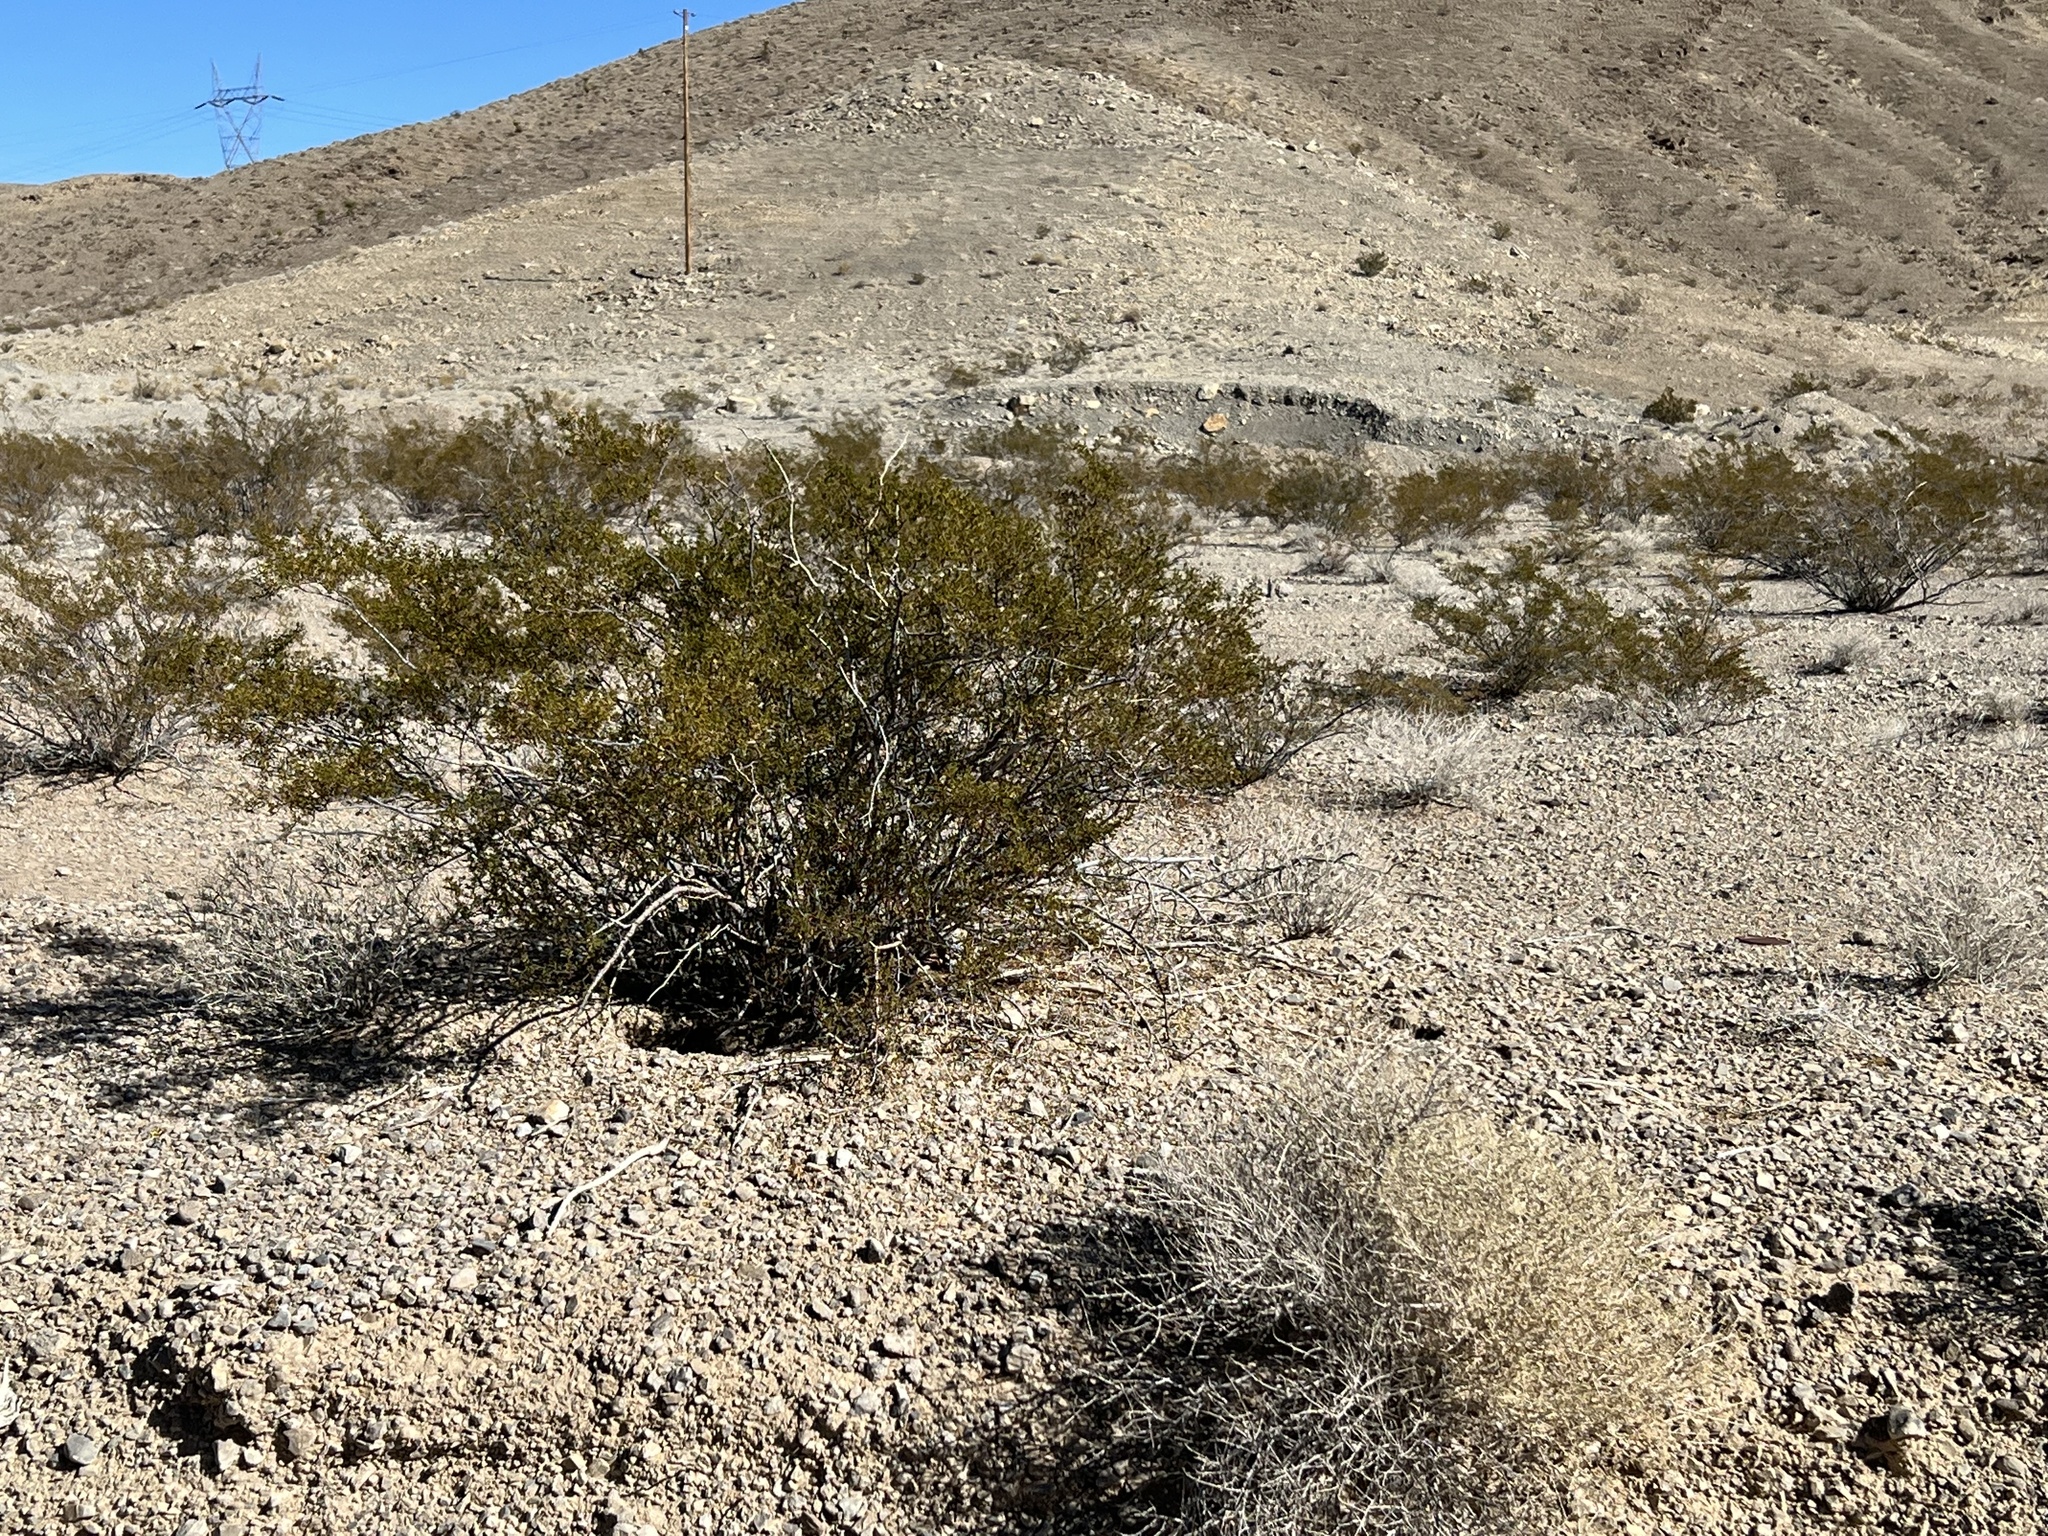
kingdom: Plantae
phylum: Tracheophyta
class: Magnoliopsida
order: Zygophyllales
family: Zygophyllaceae
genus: Larrea
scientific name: Larrea tridentata
